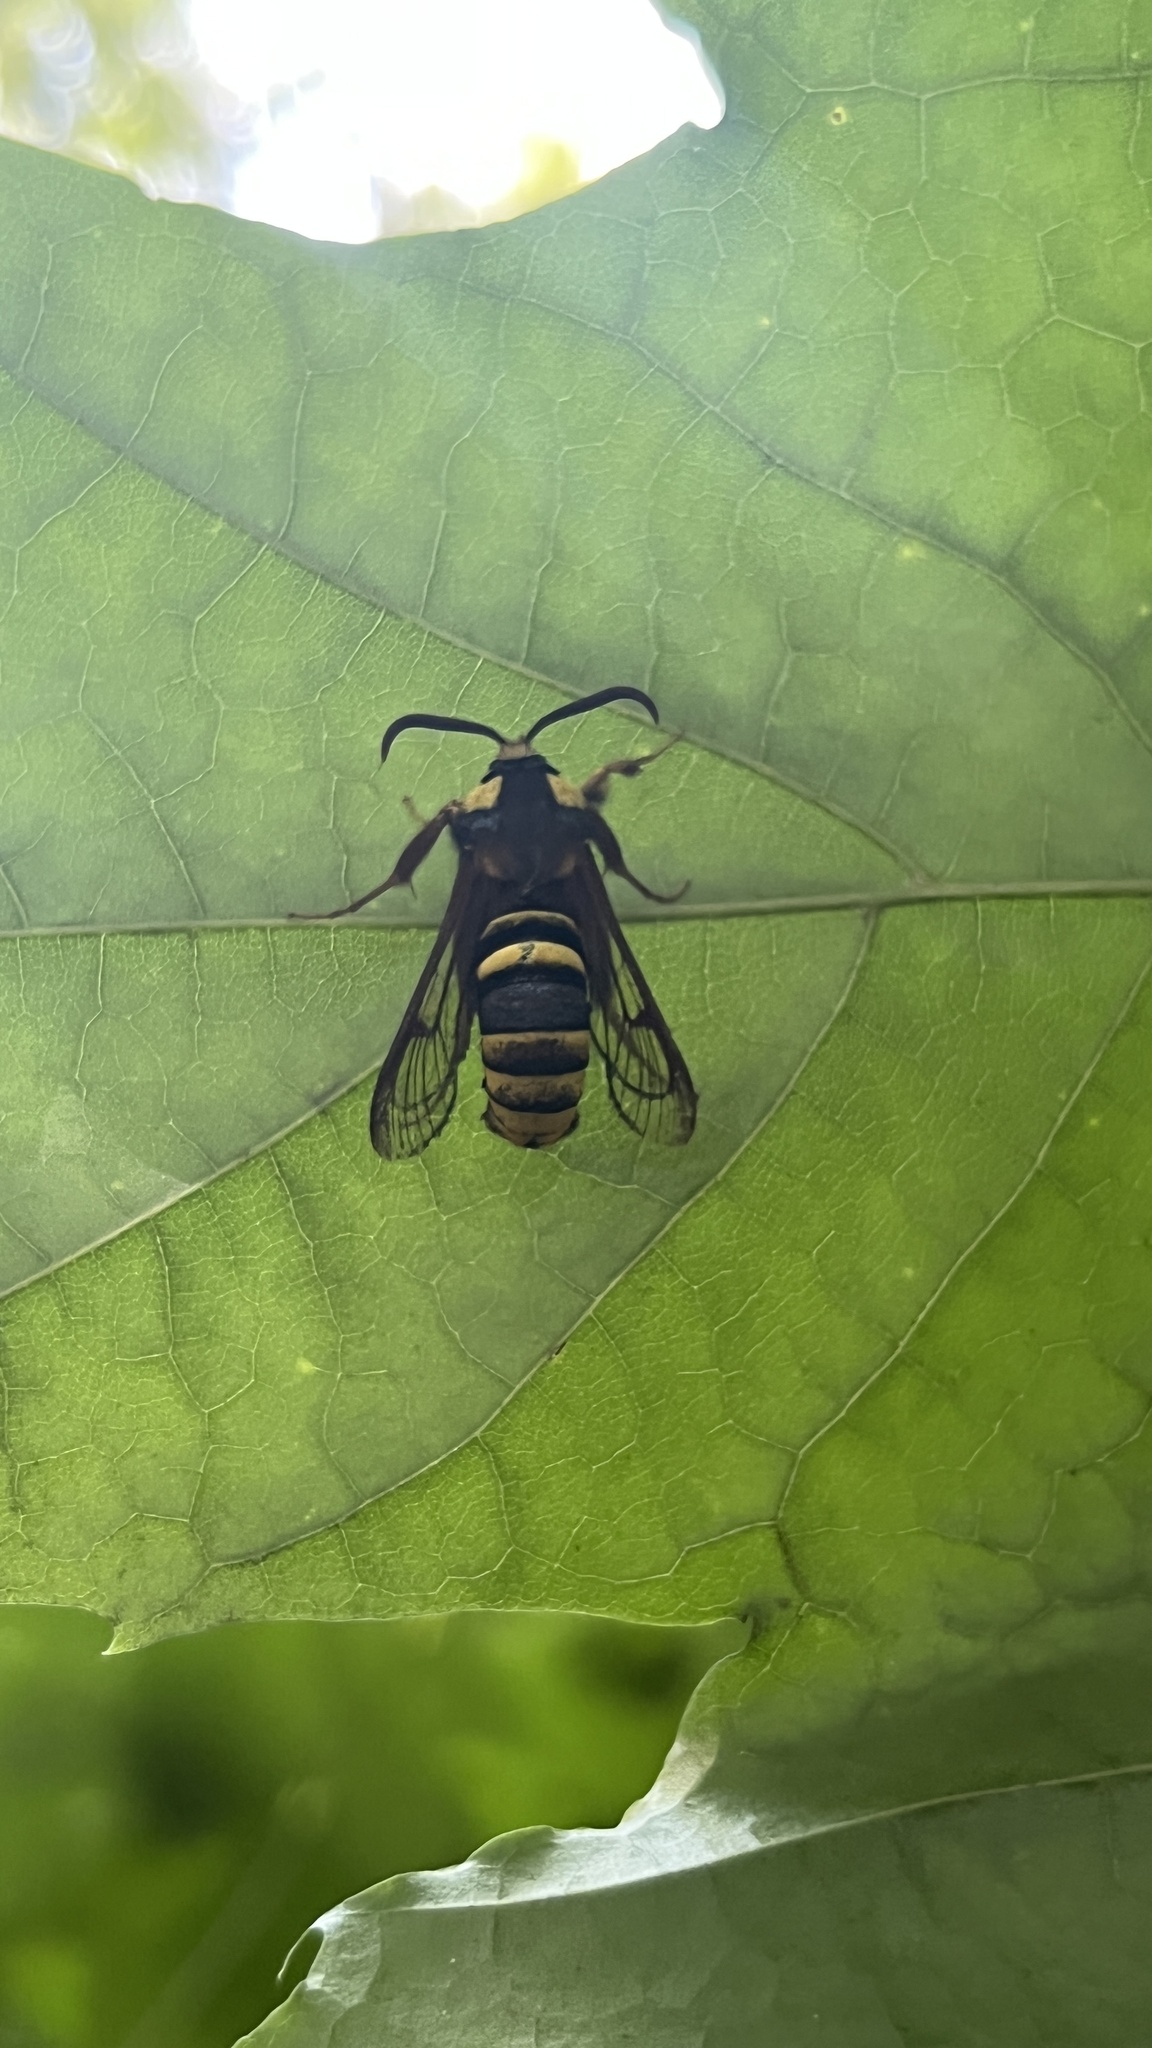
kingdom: Animalia
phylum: Arthropoda
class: Insecta
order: Lepidoptera
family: Sesiidae
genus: Sesia
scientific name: Sesia apiformis
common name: Hornet moth
